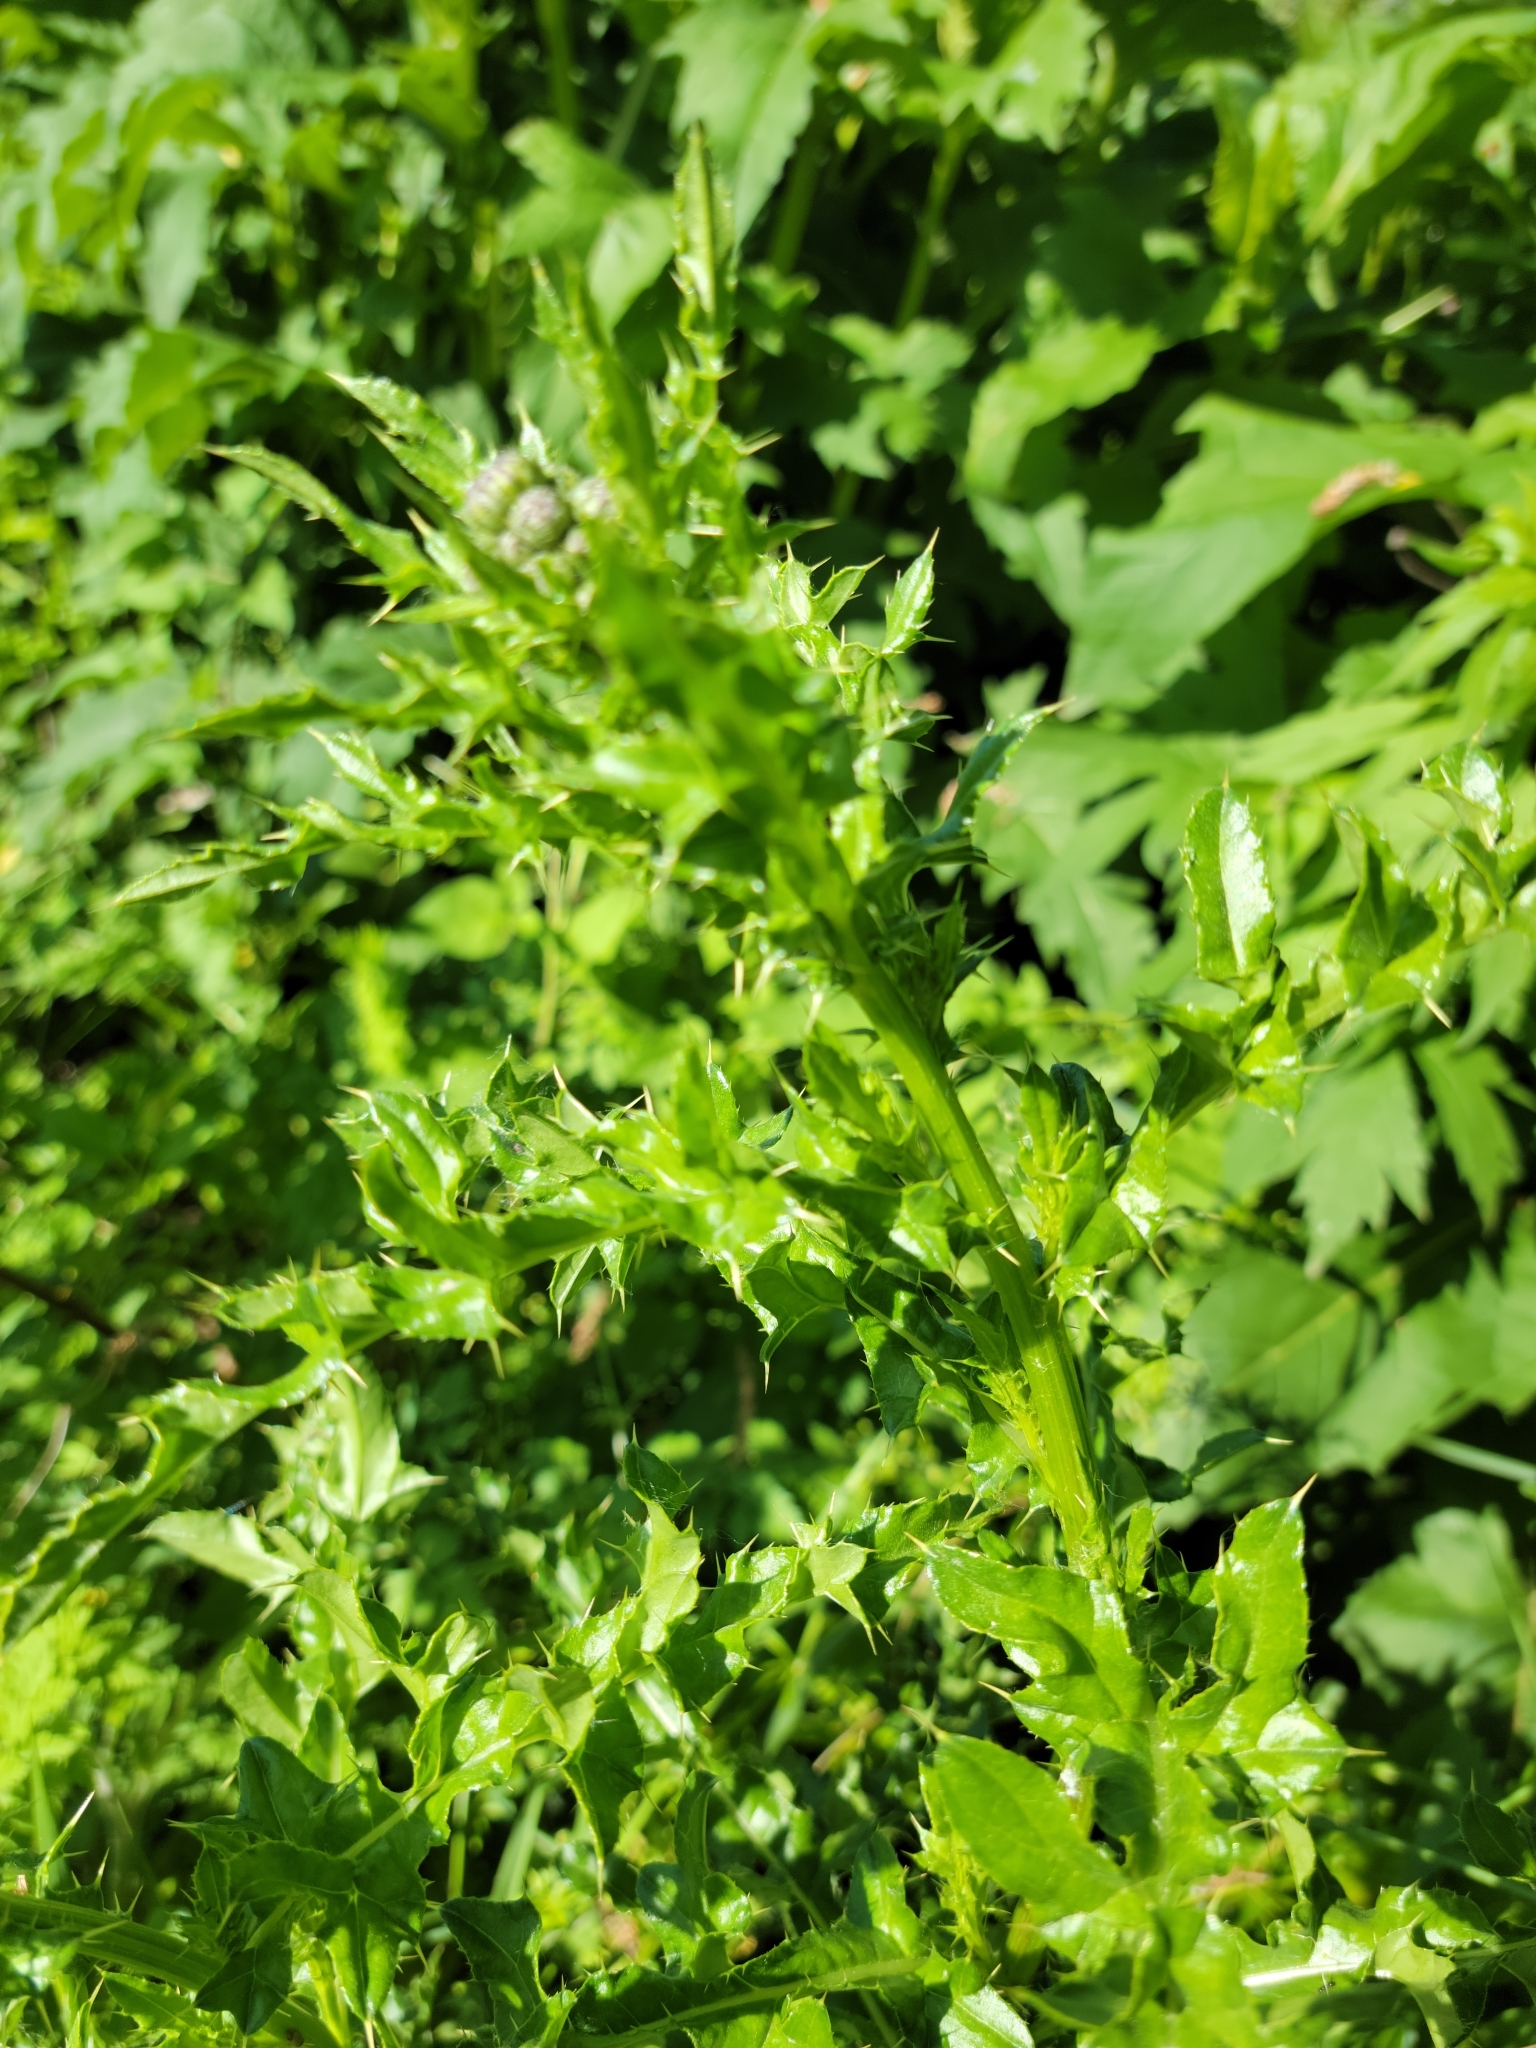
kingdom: Plantae
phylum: Tracheophyta
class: Magnoliopsida
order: Asterales
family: Asteraceae
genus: Cirsium
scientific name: Cirsium arvense
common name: Creeping thistle
